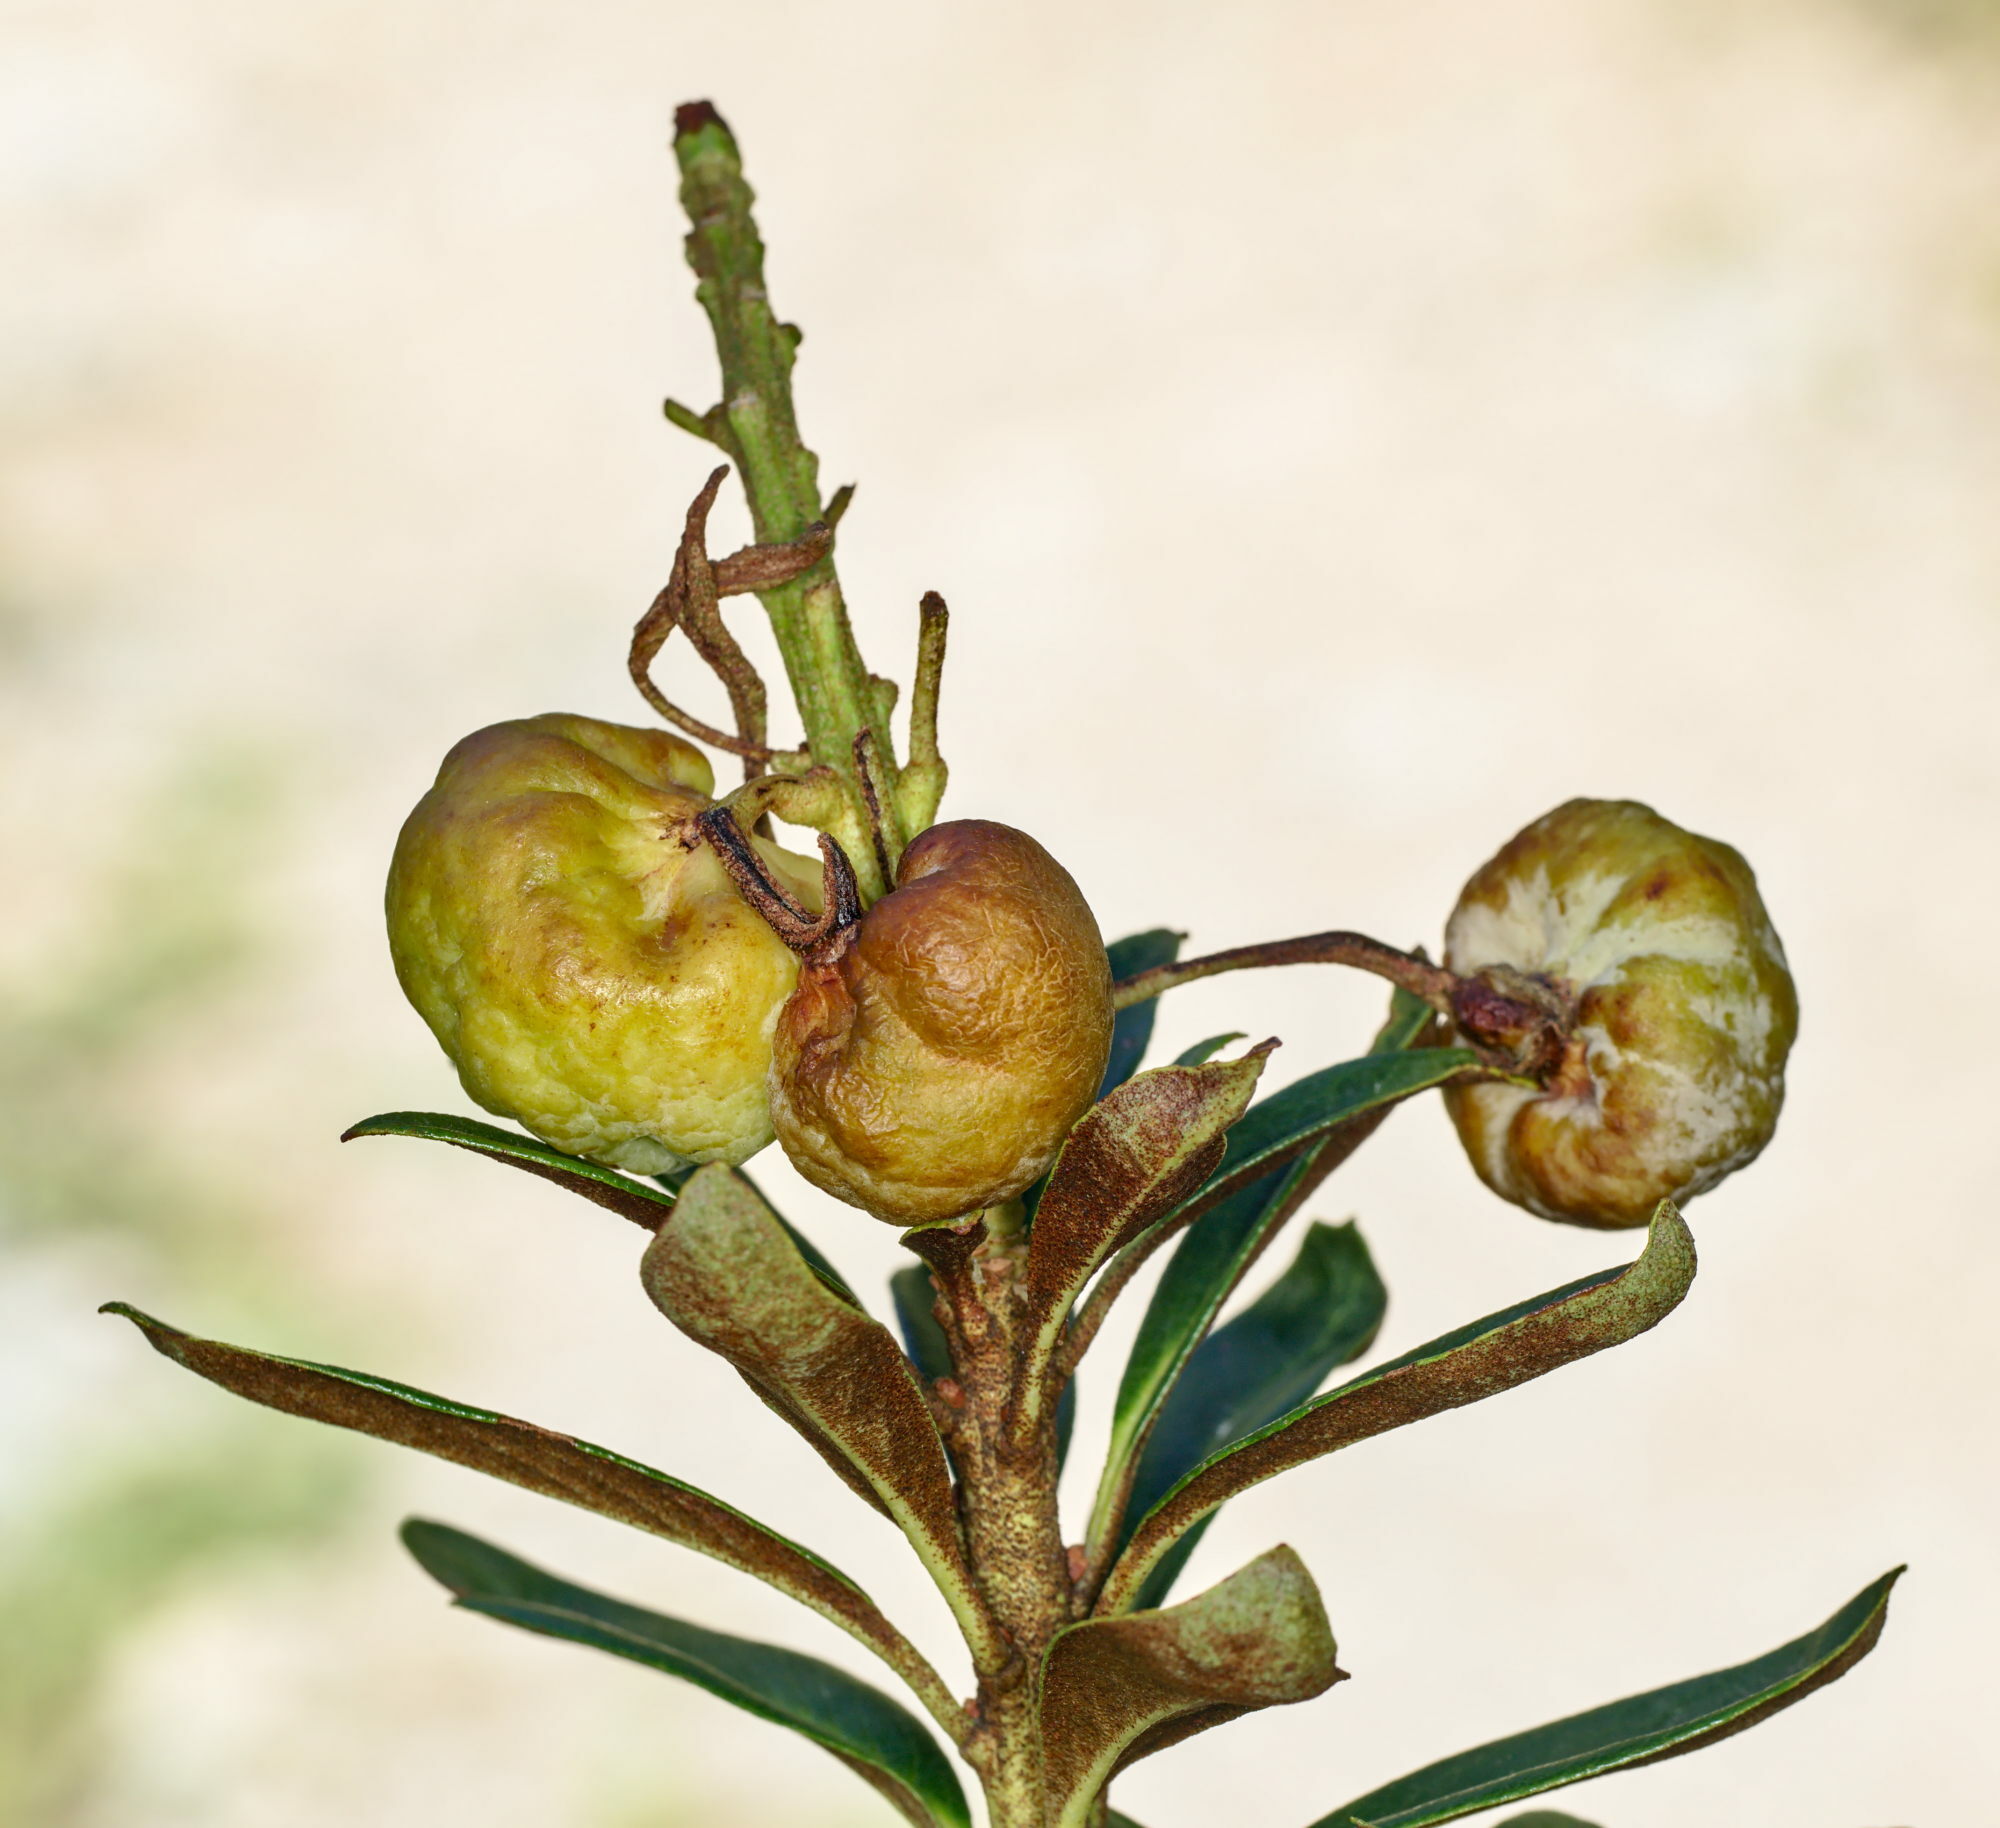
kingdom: Fungi
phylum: Basidiomycota
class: Exobasidiomycetes
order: Exobasidiales
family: Exobasidiaceae
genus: Exobasidium
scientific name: Exobasidium rhododendri
